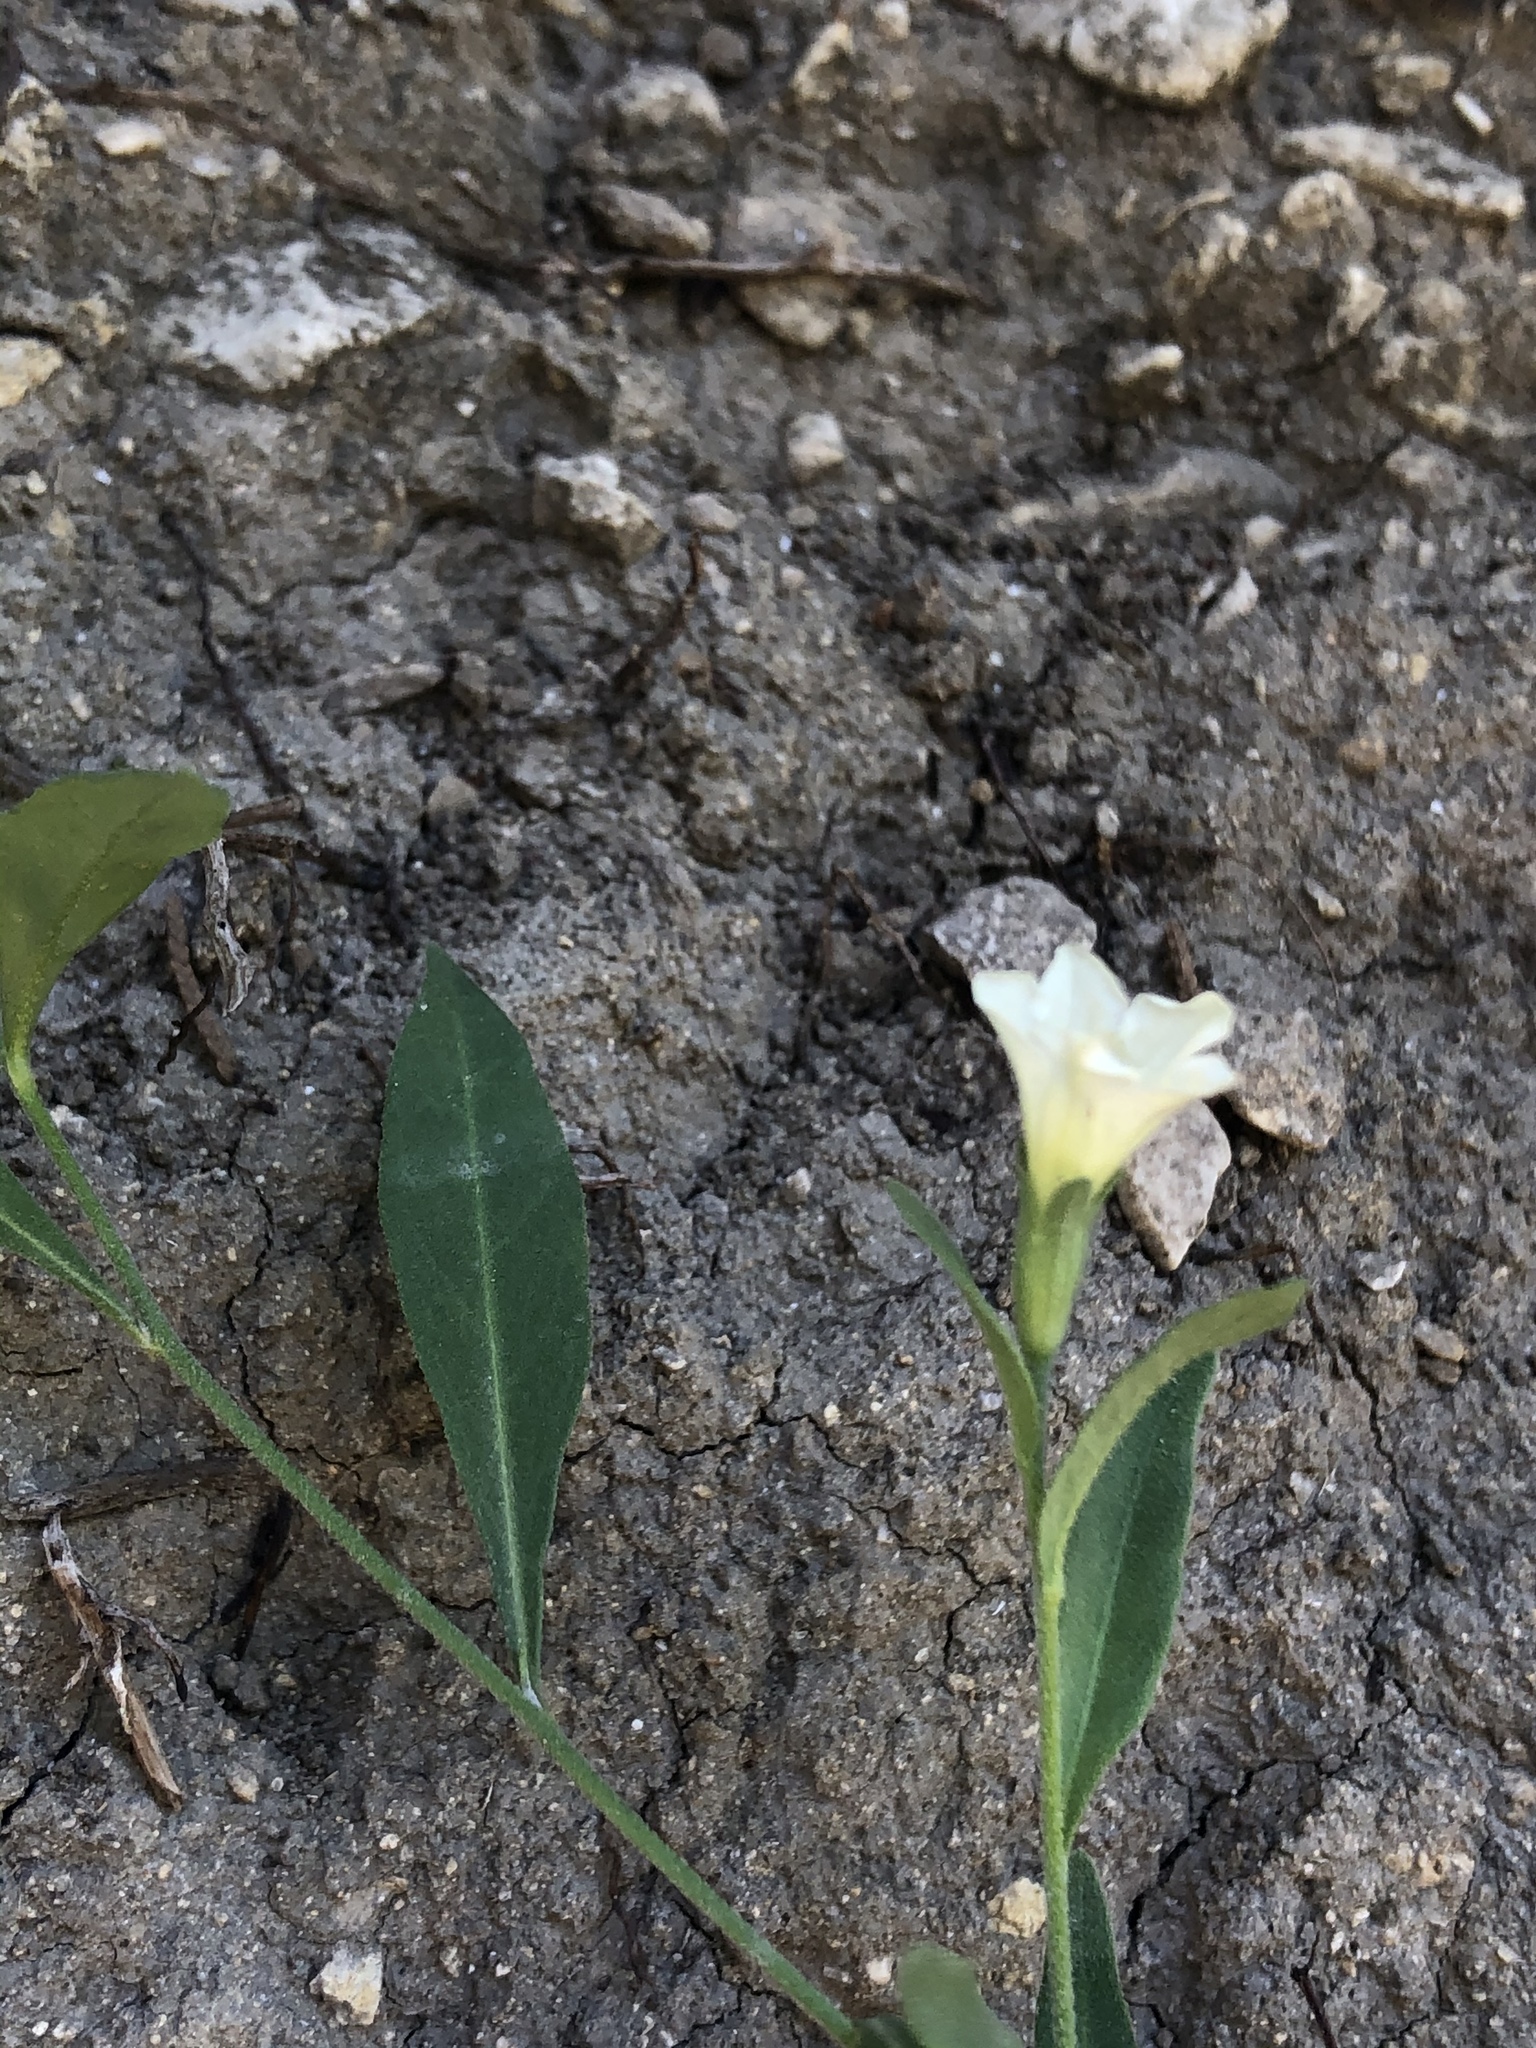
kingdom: Plantae
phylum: Tracheophyta
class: Magnoliopsida
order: Solanales
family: Solanaceae
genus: Salpiglossis
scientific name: Salpiglossis erecta
